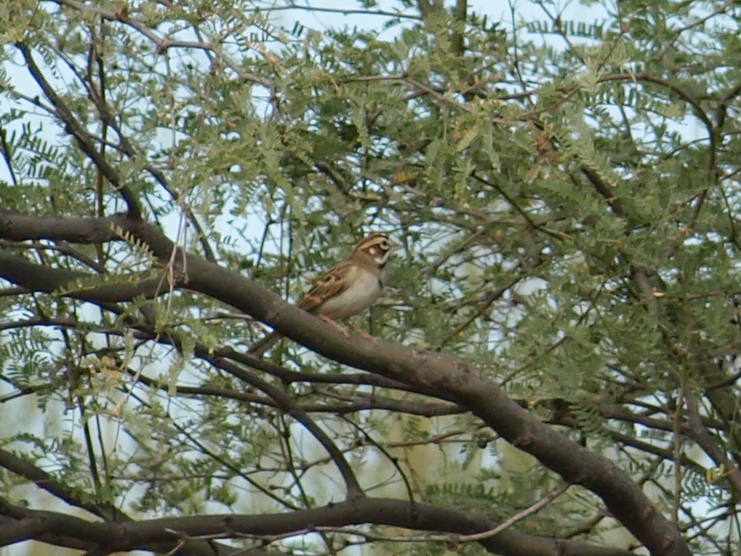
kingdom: Animalia
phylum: Chordata
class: Aves
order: Passeriformes
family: Passerellidae
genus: Chondestes
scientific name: Chondestes grammacus
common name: Lark sparrow
